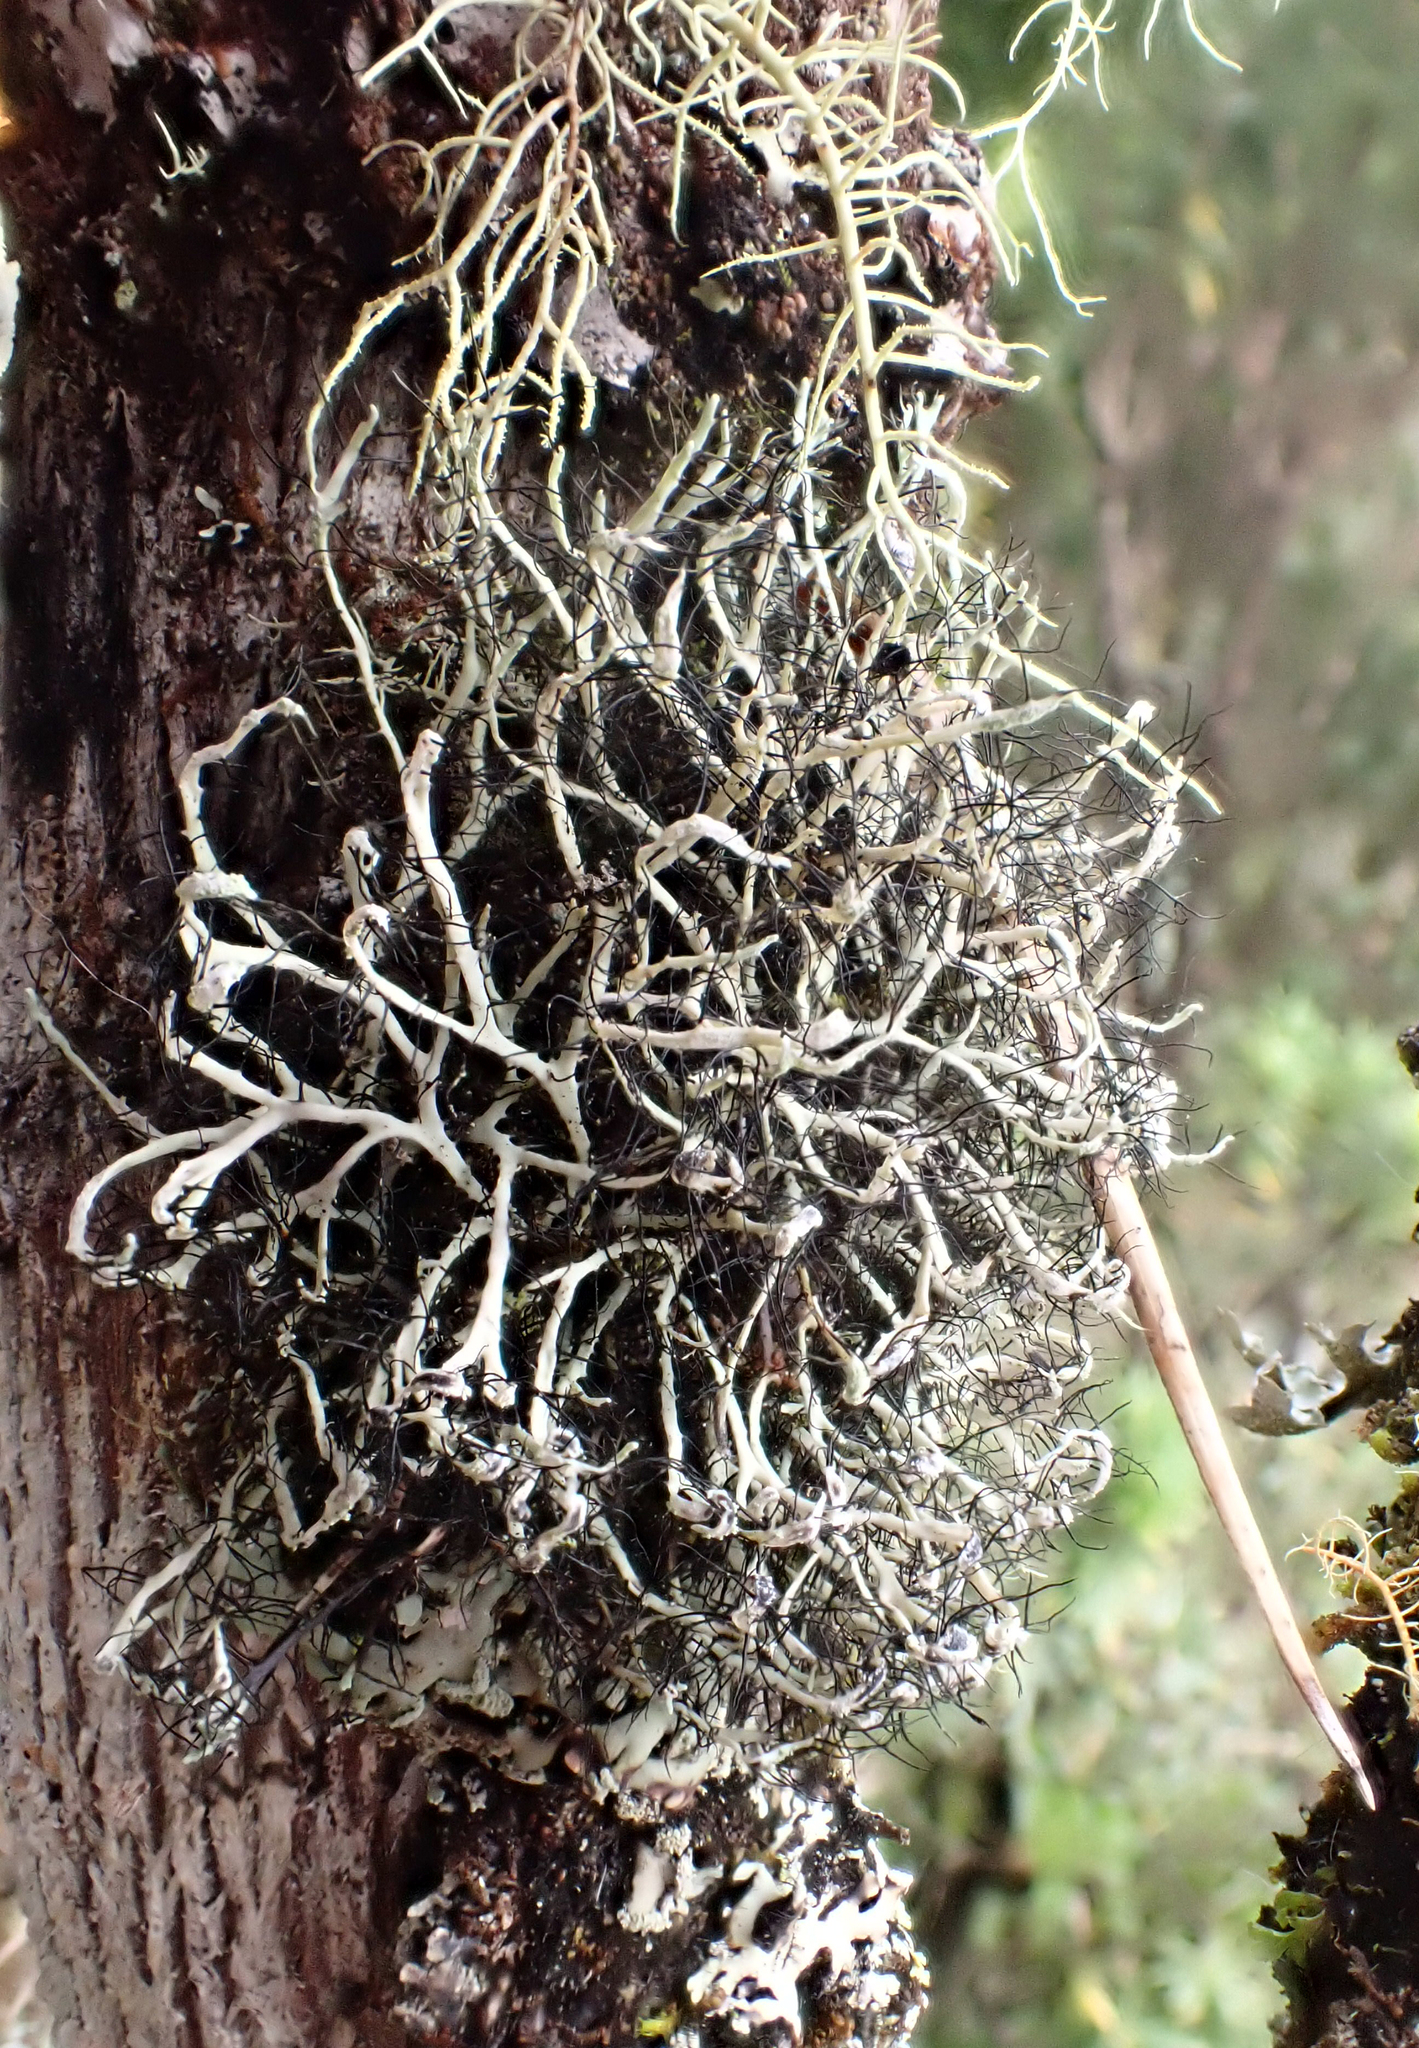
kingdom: Fungi
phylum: Ascomycota
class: Lecanoromycetes
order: Caliciales
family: Physciaceae
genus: Leucodermia
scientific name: Leucodermia leucomelos
